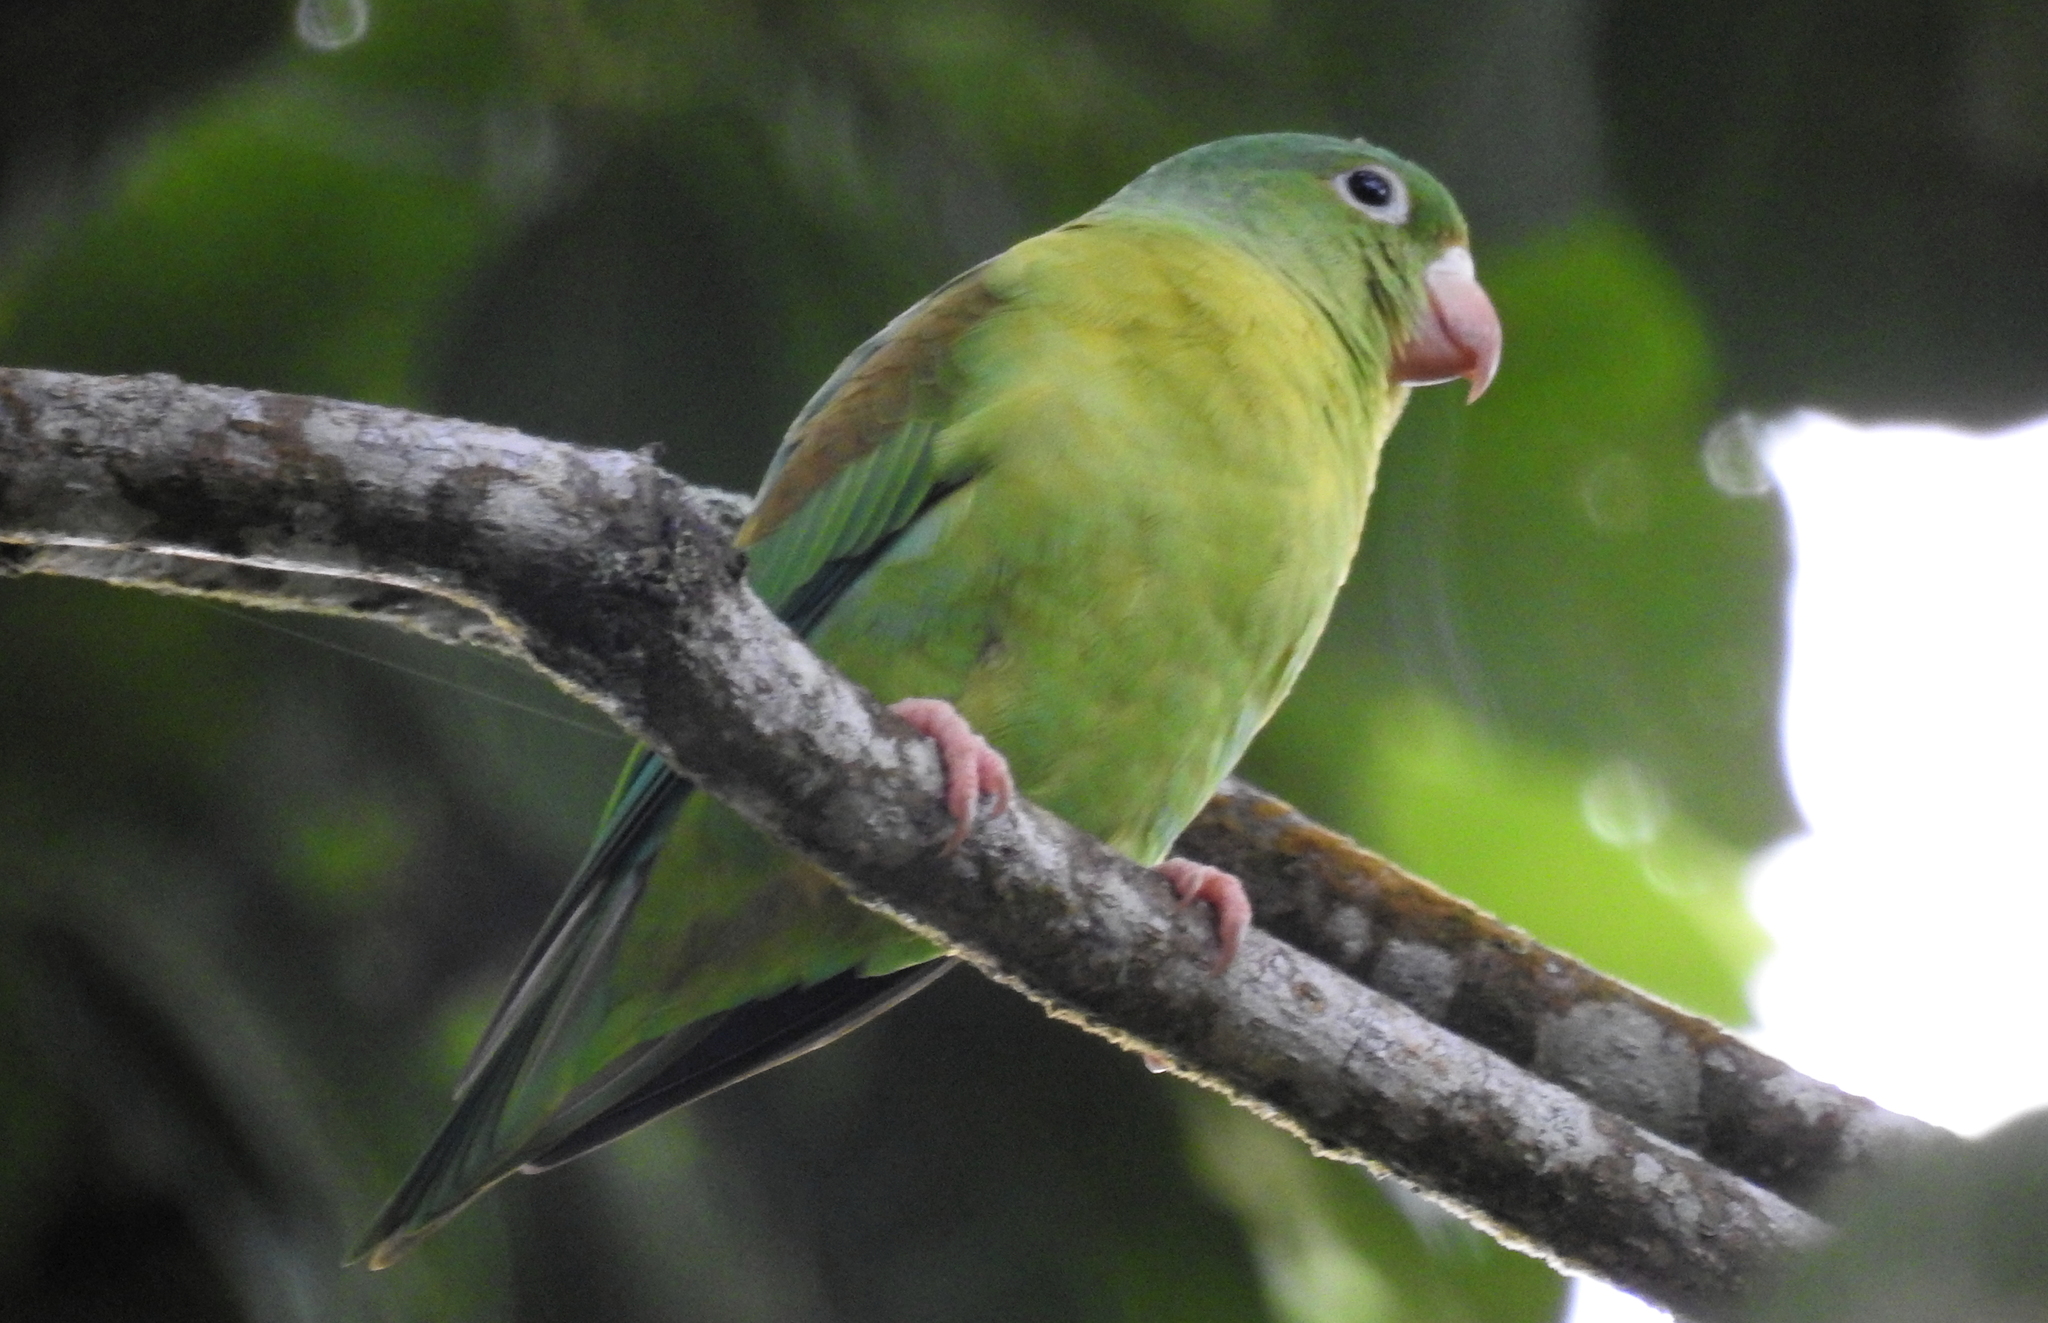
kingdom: Animalia
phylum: Chordata
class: Aves
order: Psittaciformes
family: Psittacidae
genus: Brotogeris
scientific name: Brotogeris jugularis
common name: Orange-chinned parakeet
